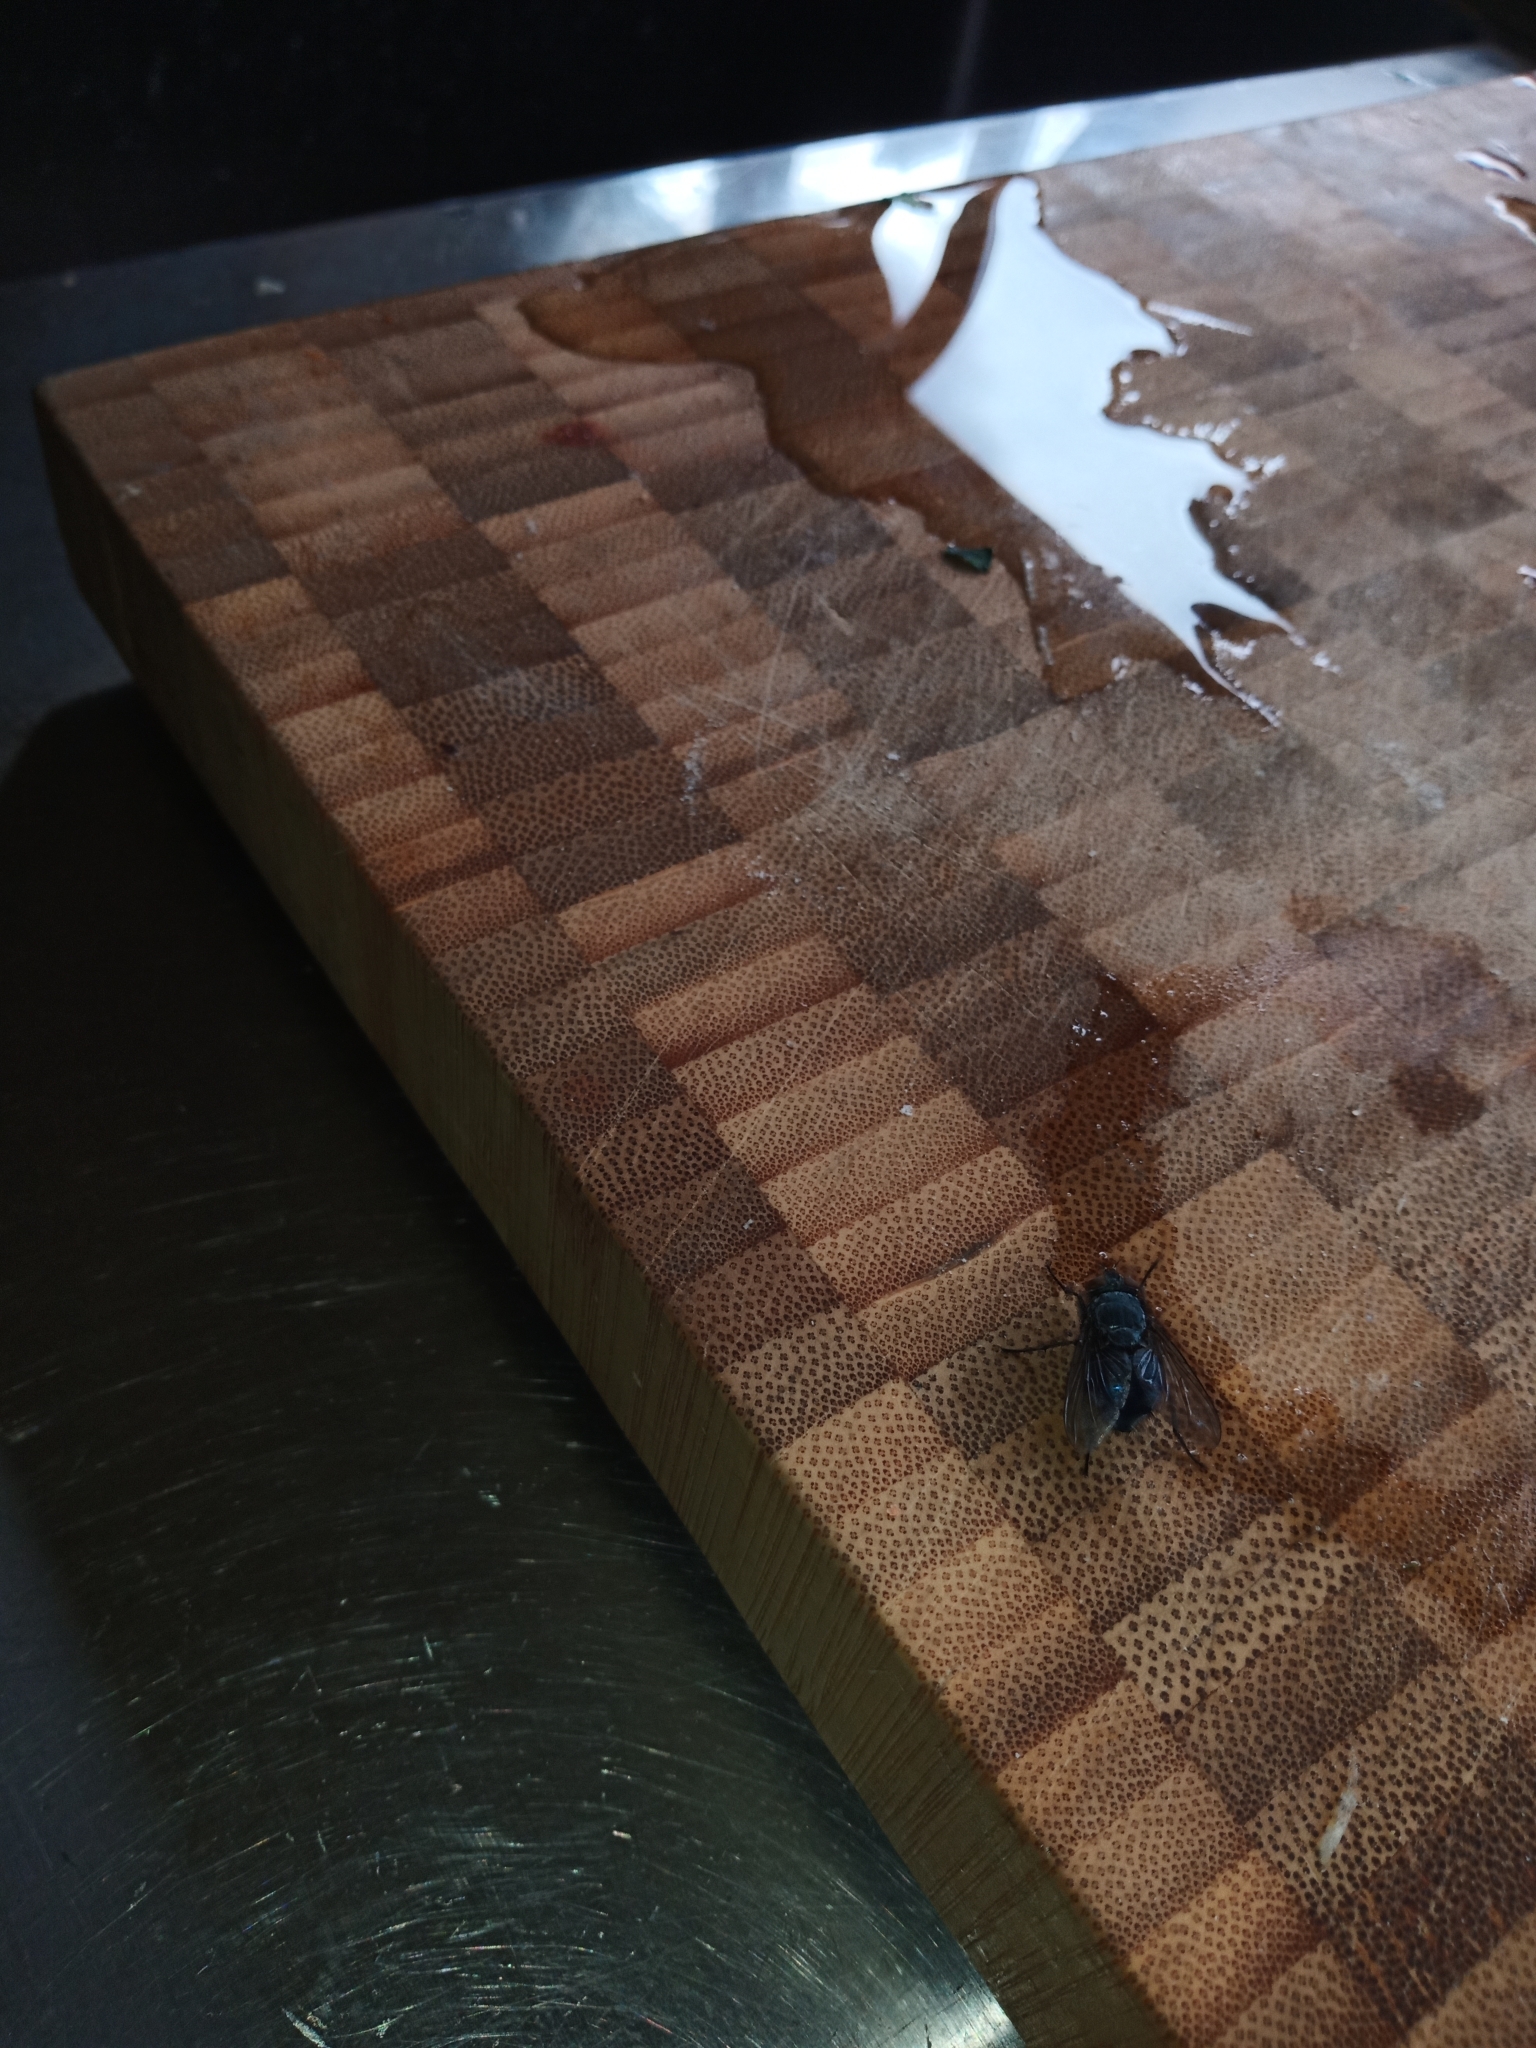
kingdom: Animalia
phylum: Arthropoda
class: Insecta
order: Diptera
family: Calliphoridae
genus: Calliphora
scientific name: Calliphora vicina
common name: Common blow flie
